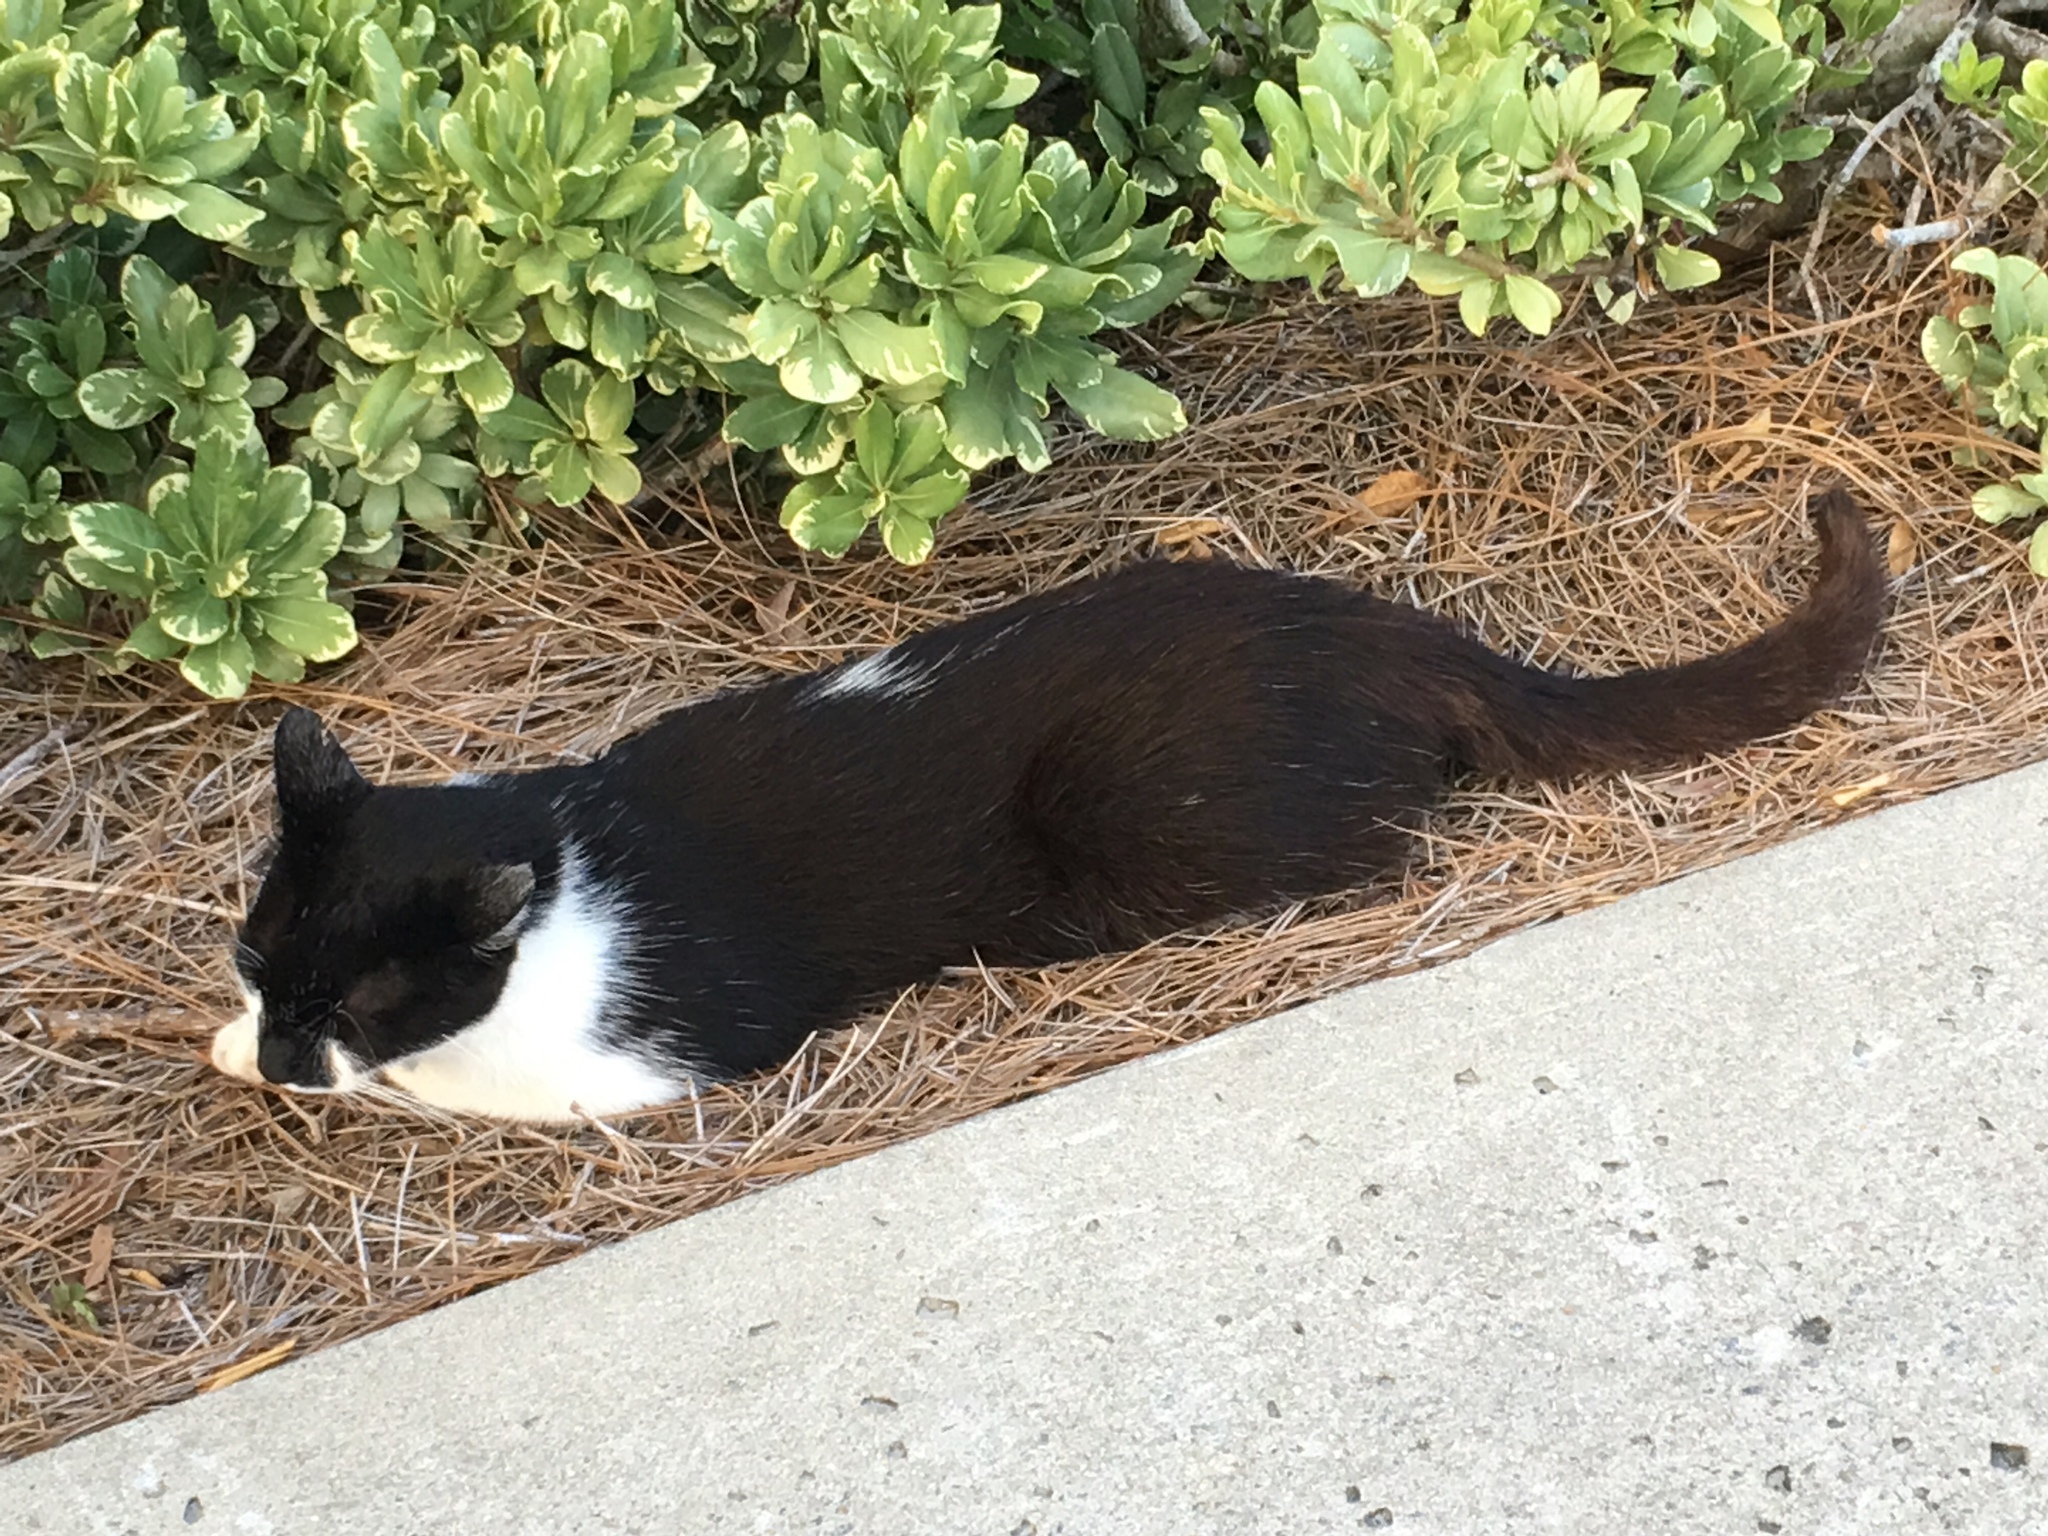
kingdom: Animalia
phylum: Chordata
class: Mammalia
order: Carnivora
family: Felidae
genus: Felis
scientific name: Felis catus
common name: Domestic cat
